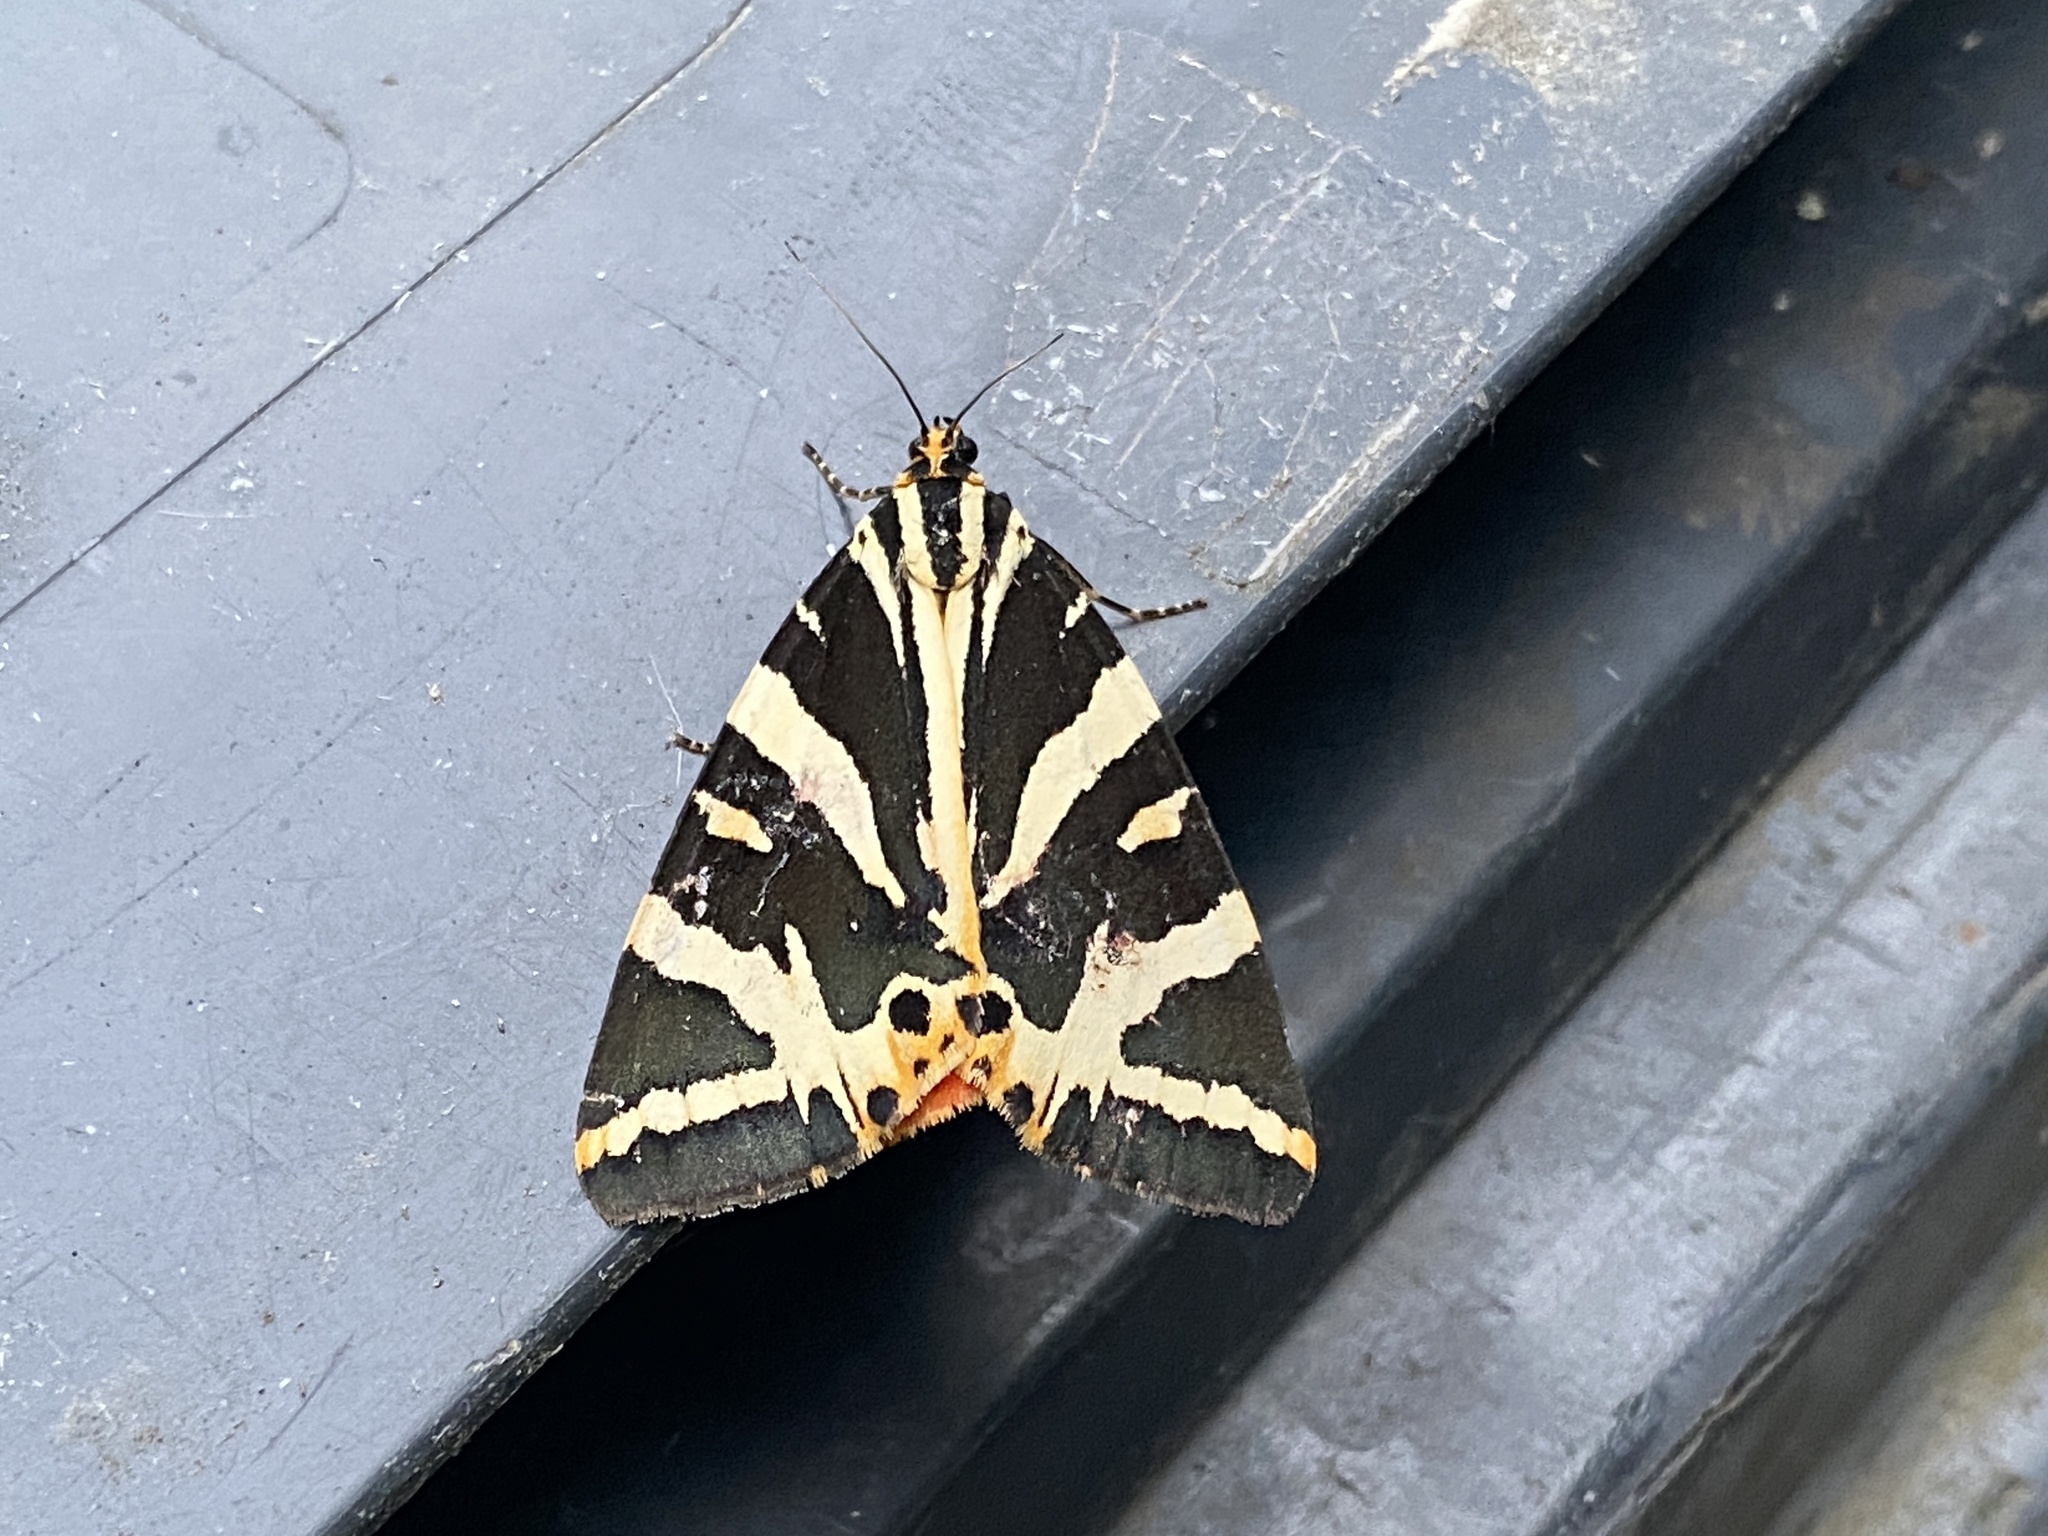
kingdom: Animalia
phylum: Arthropoda
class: Insecta
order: Lepidoptera
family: Erebidae
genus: Euplagia
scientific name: Euplagia quadripunctaria
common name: Jersey tiger
